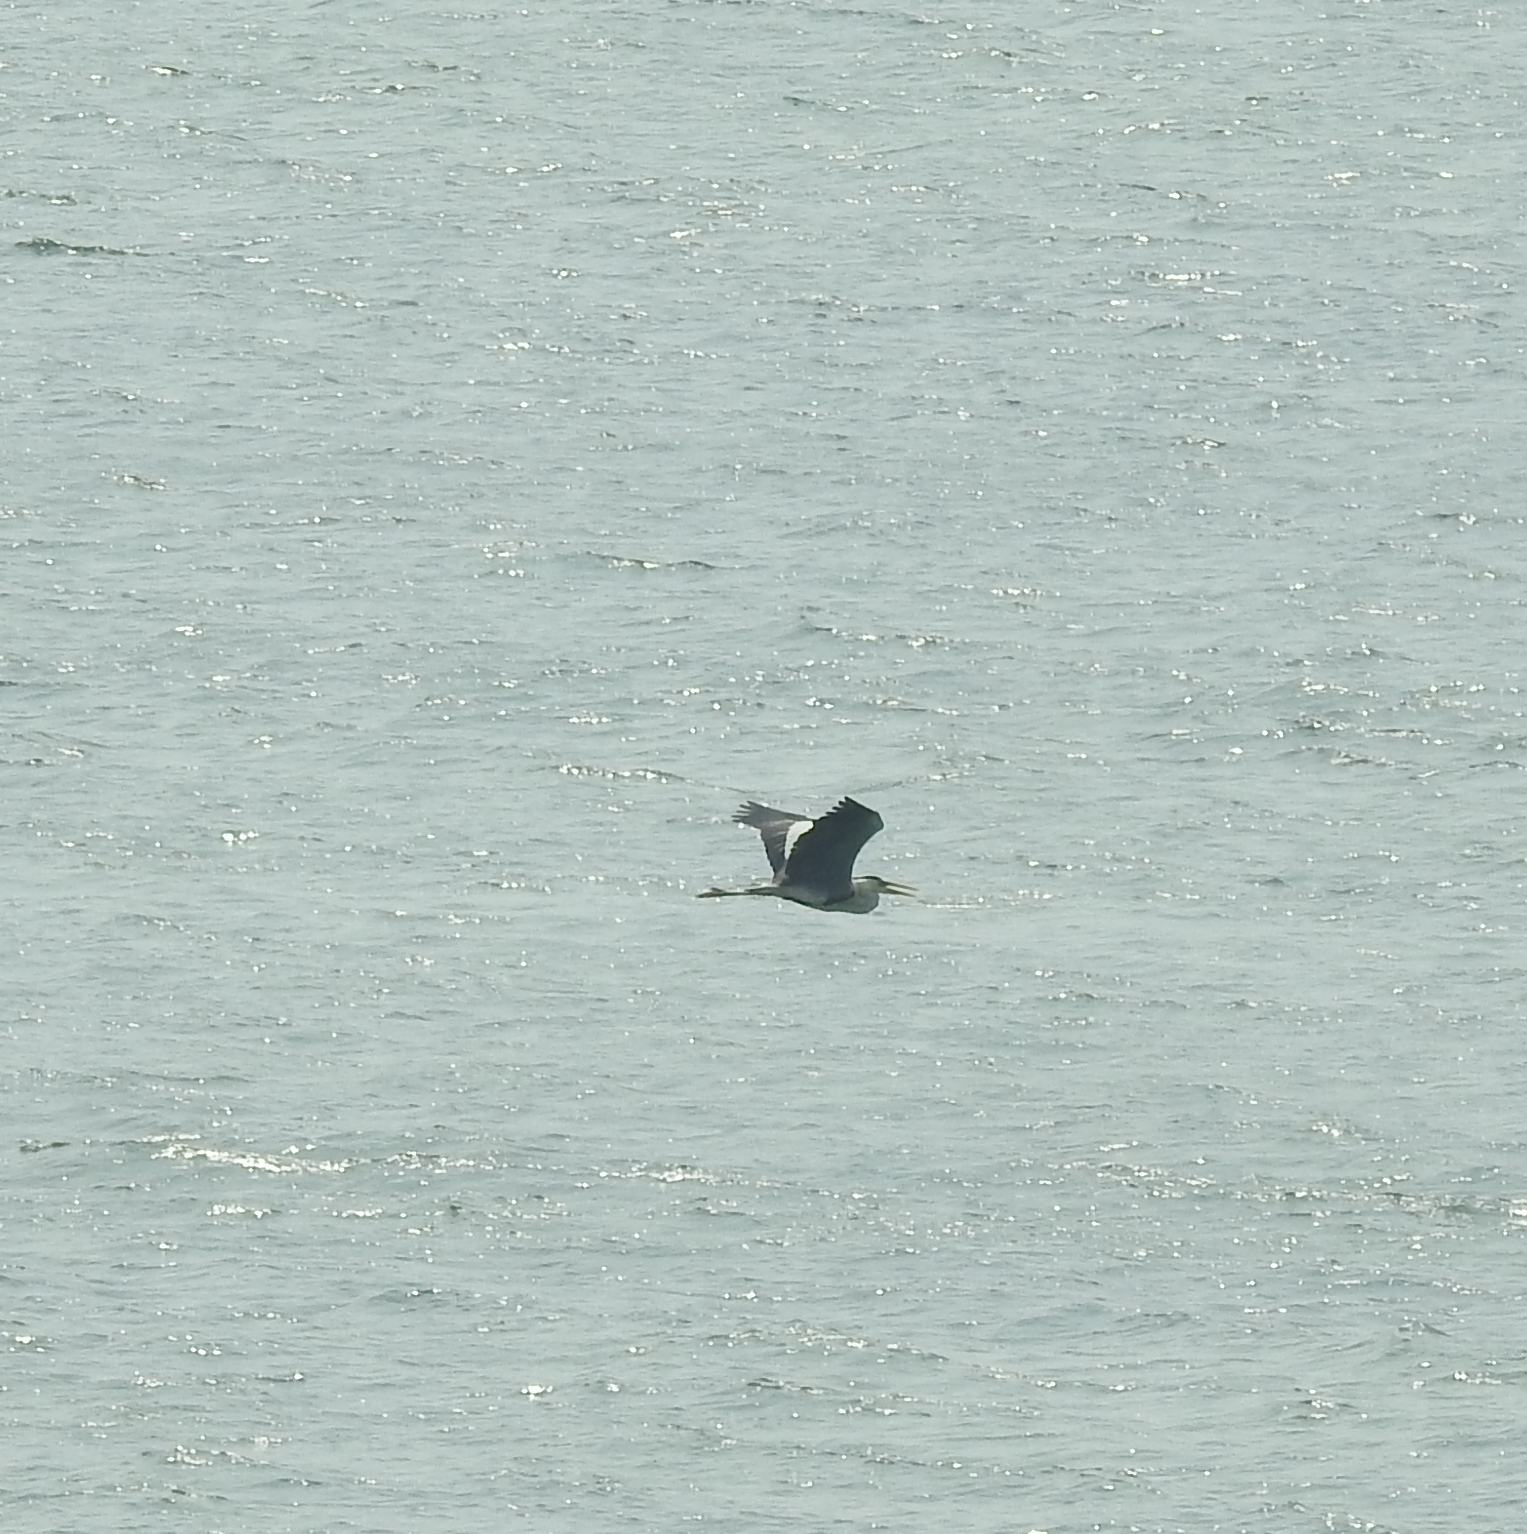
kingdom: Animalia
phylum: Chordata
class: Aves
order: Pelecaniformes
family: Ardeidae
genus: Ardea
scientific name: Ardea cinerea
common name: Grey heron
